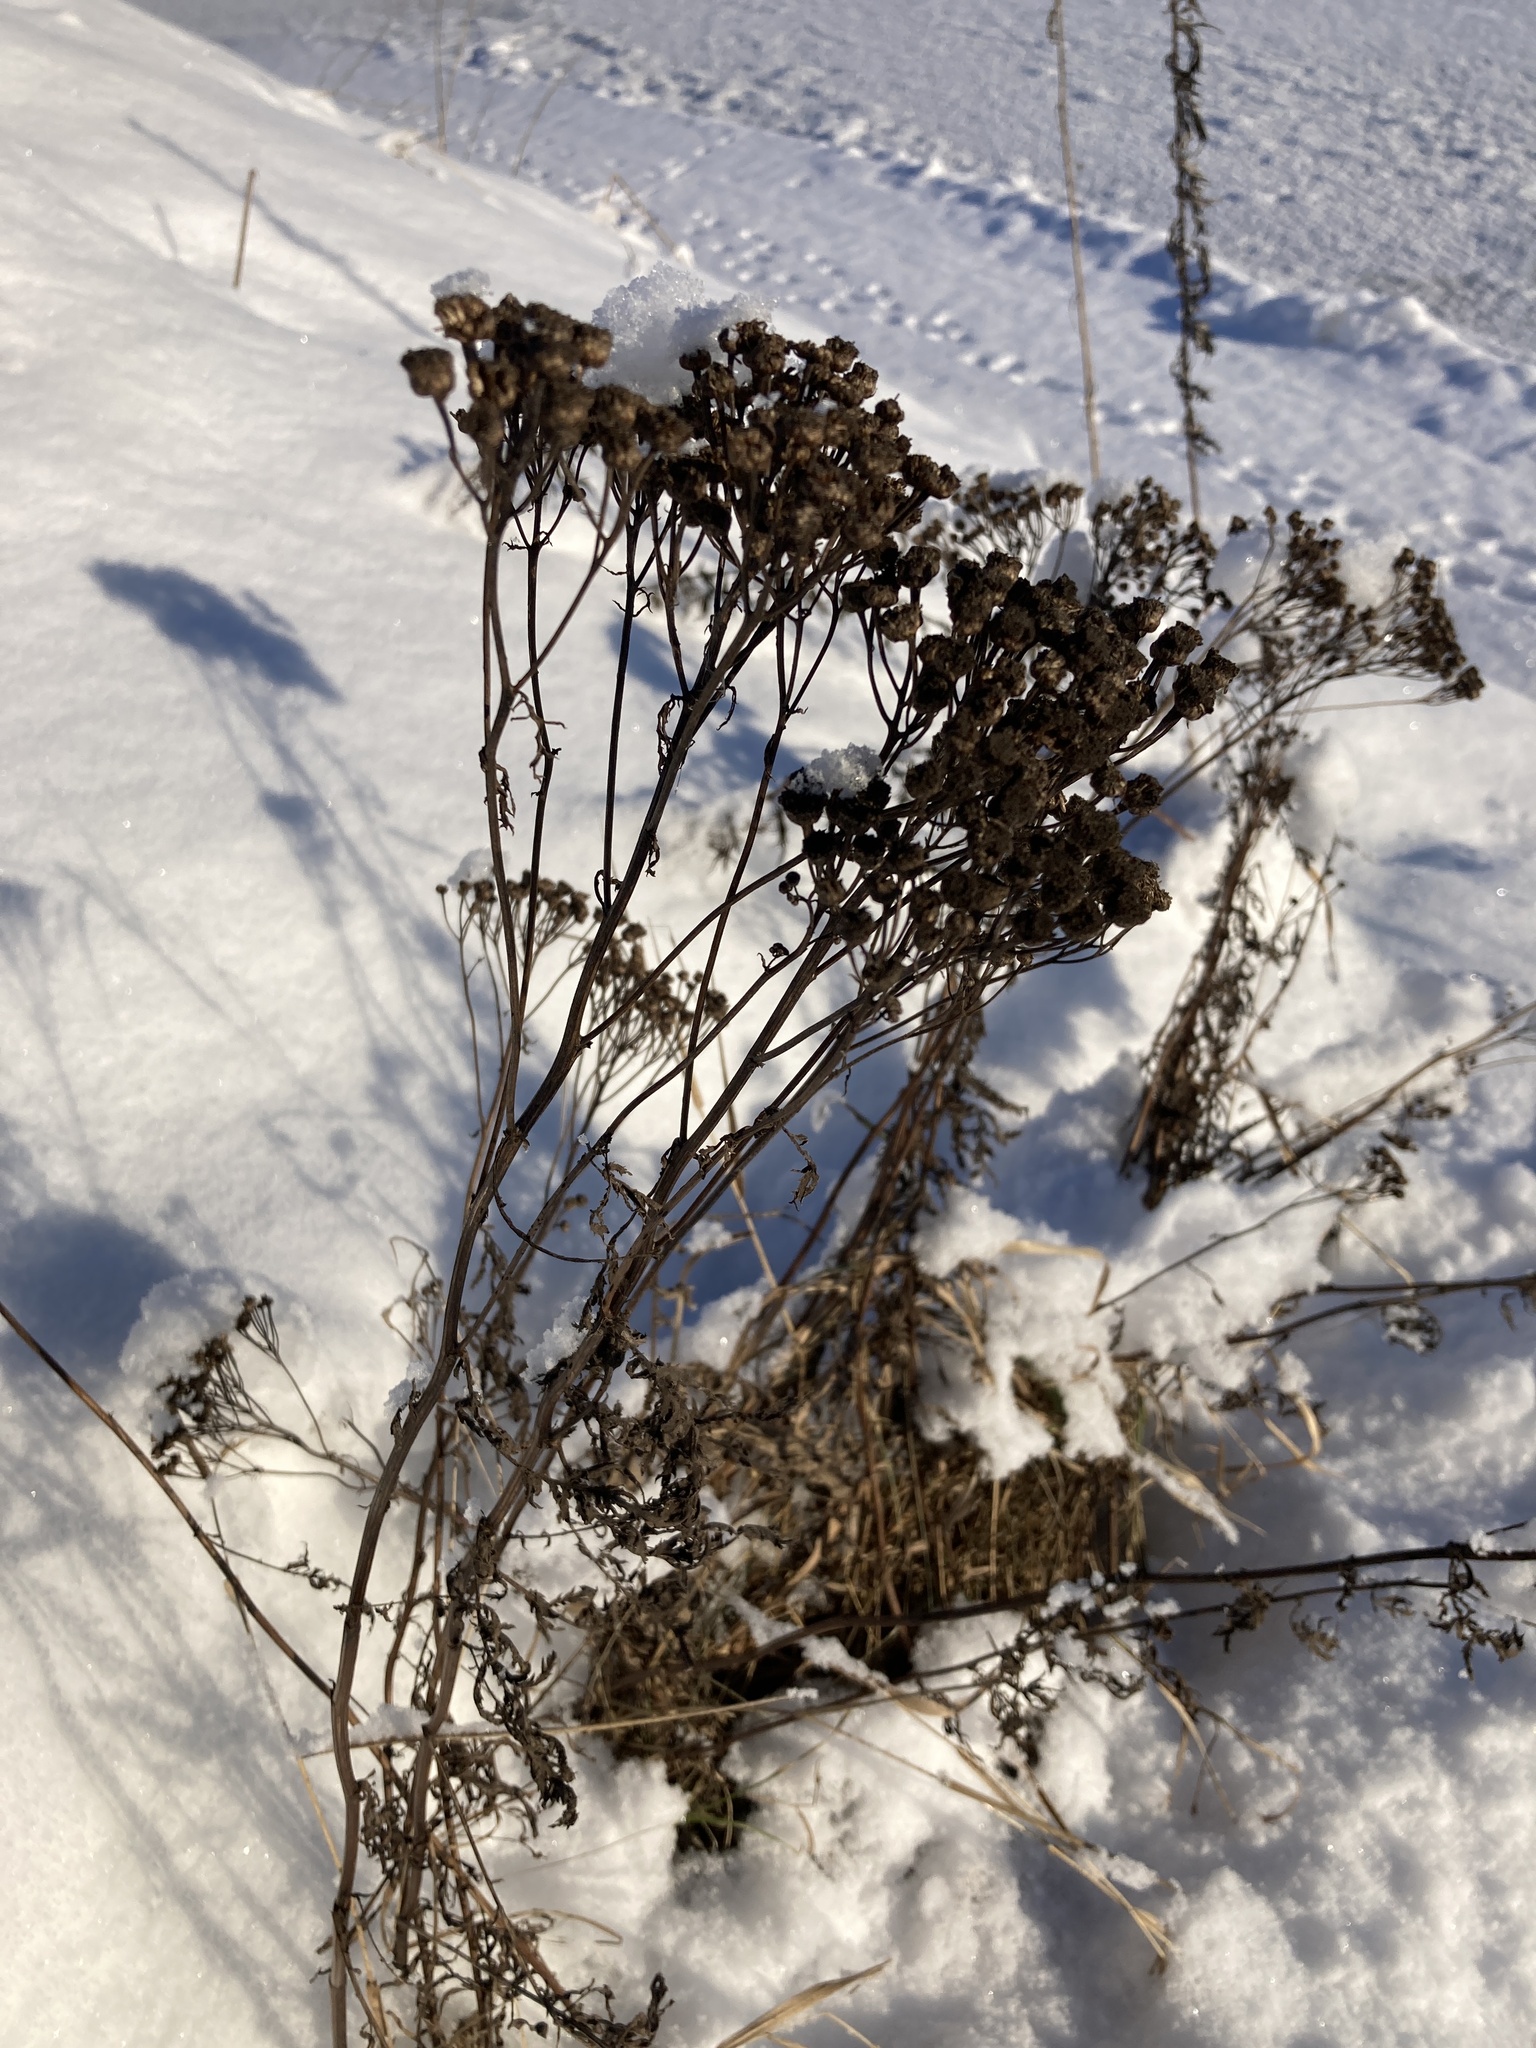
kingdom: Plantae
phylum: Tracheophyta
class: Magnoliopsida
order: Asterales
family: Asteraceae
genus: Tanacetum
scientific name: Tanacetum vulgare
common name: Common tansy
